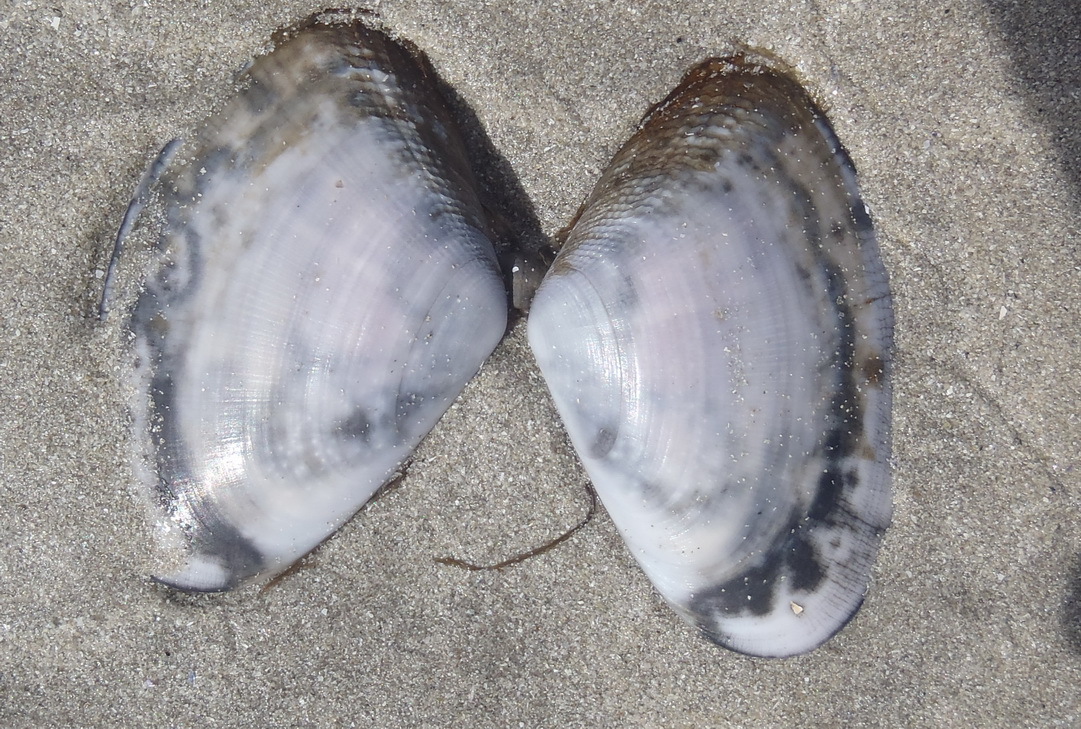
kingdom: Animalia
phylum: Mollusca
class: Bivalvia
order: Cardiida
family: Donacidae
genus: Donax
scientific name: Donax serra
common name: Giant south african wedge clam
